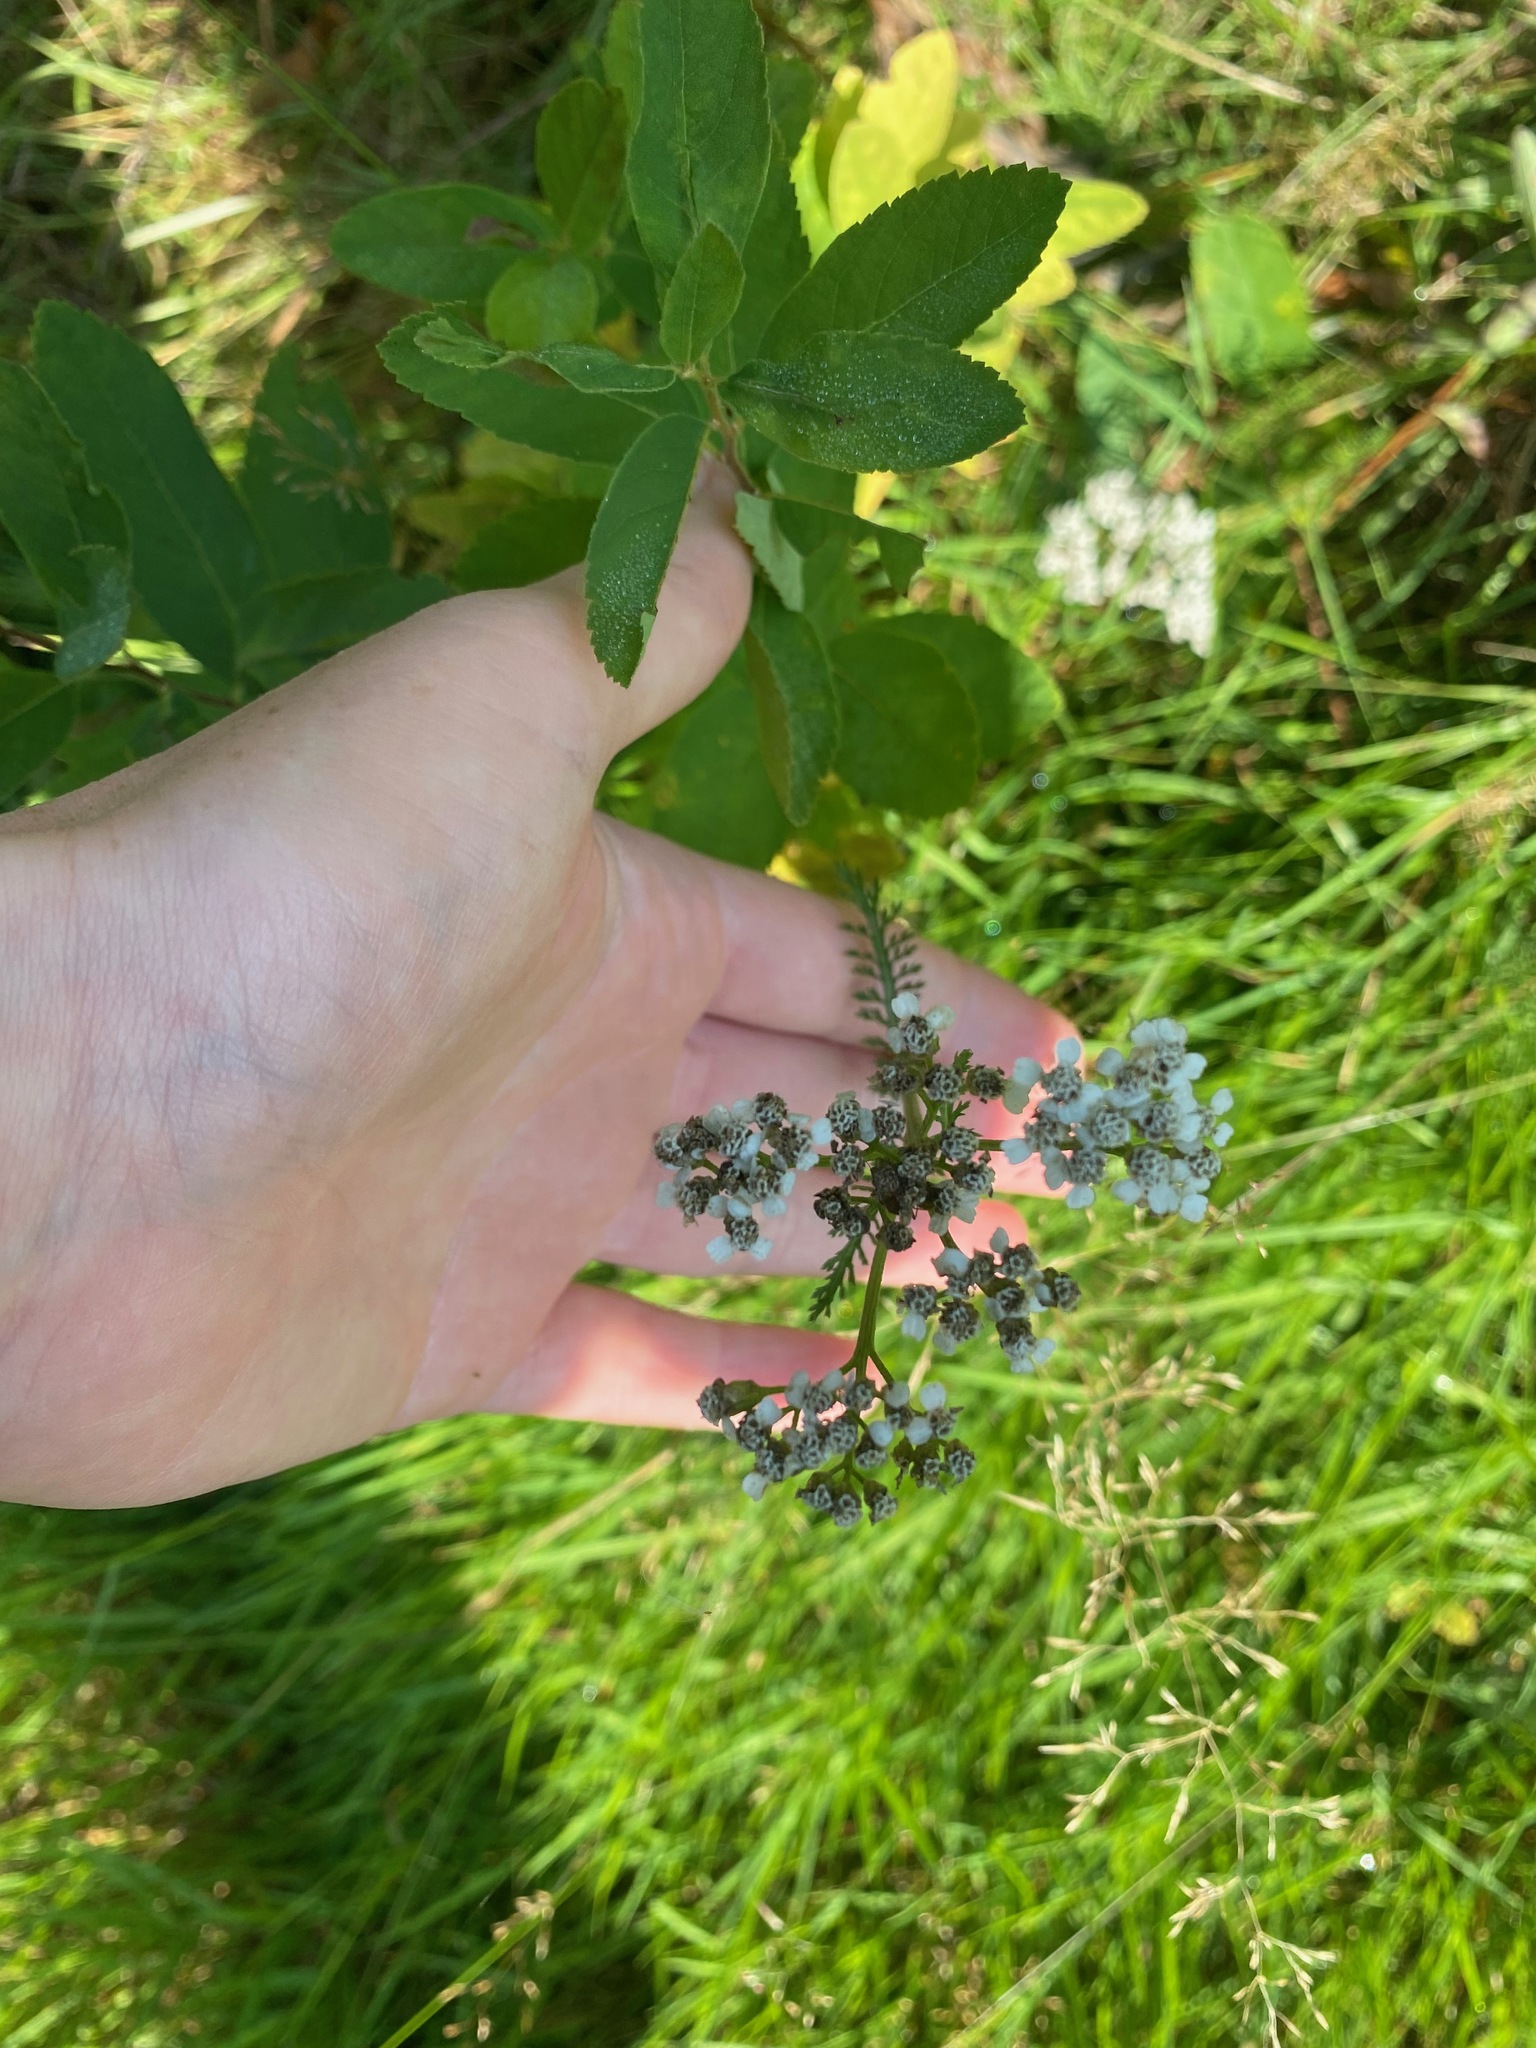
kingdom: Plantae
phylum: Tracheophyta
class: Magnoliopsida
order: Asterales
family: Asteraceae
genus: Achillea
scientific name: Achillea millefolium
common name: Yarrow
